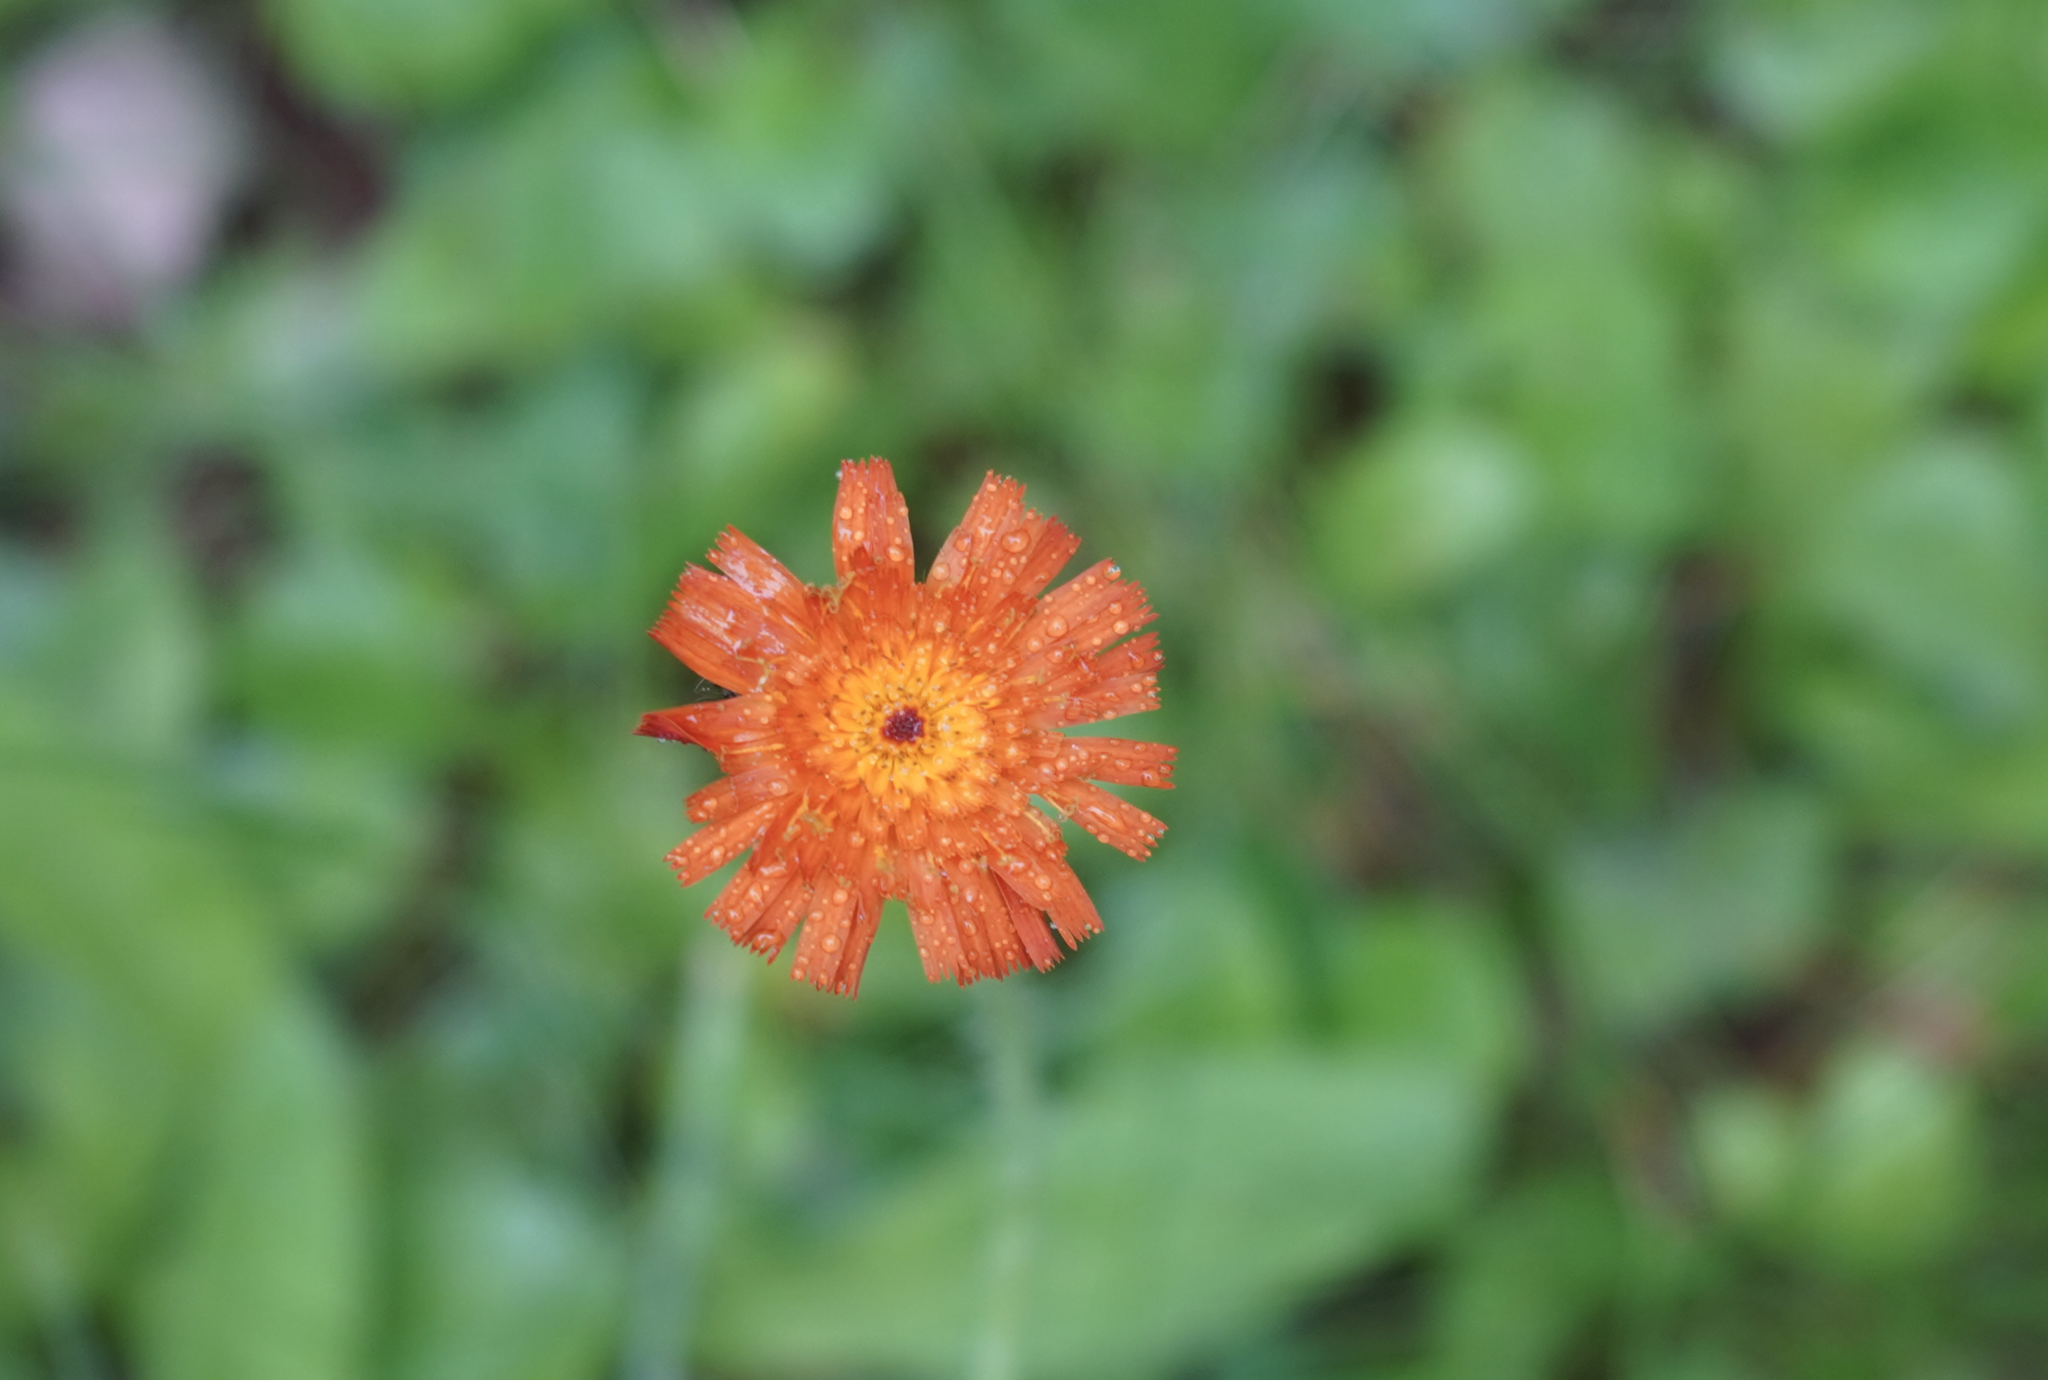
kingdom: Plantae
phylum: Tracheophyta
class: Magnoliopsida
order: Asterales
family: Asteraceae
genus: Pilosella
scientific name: Pilosella aurantiaca
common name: Fox-and-cubs
